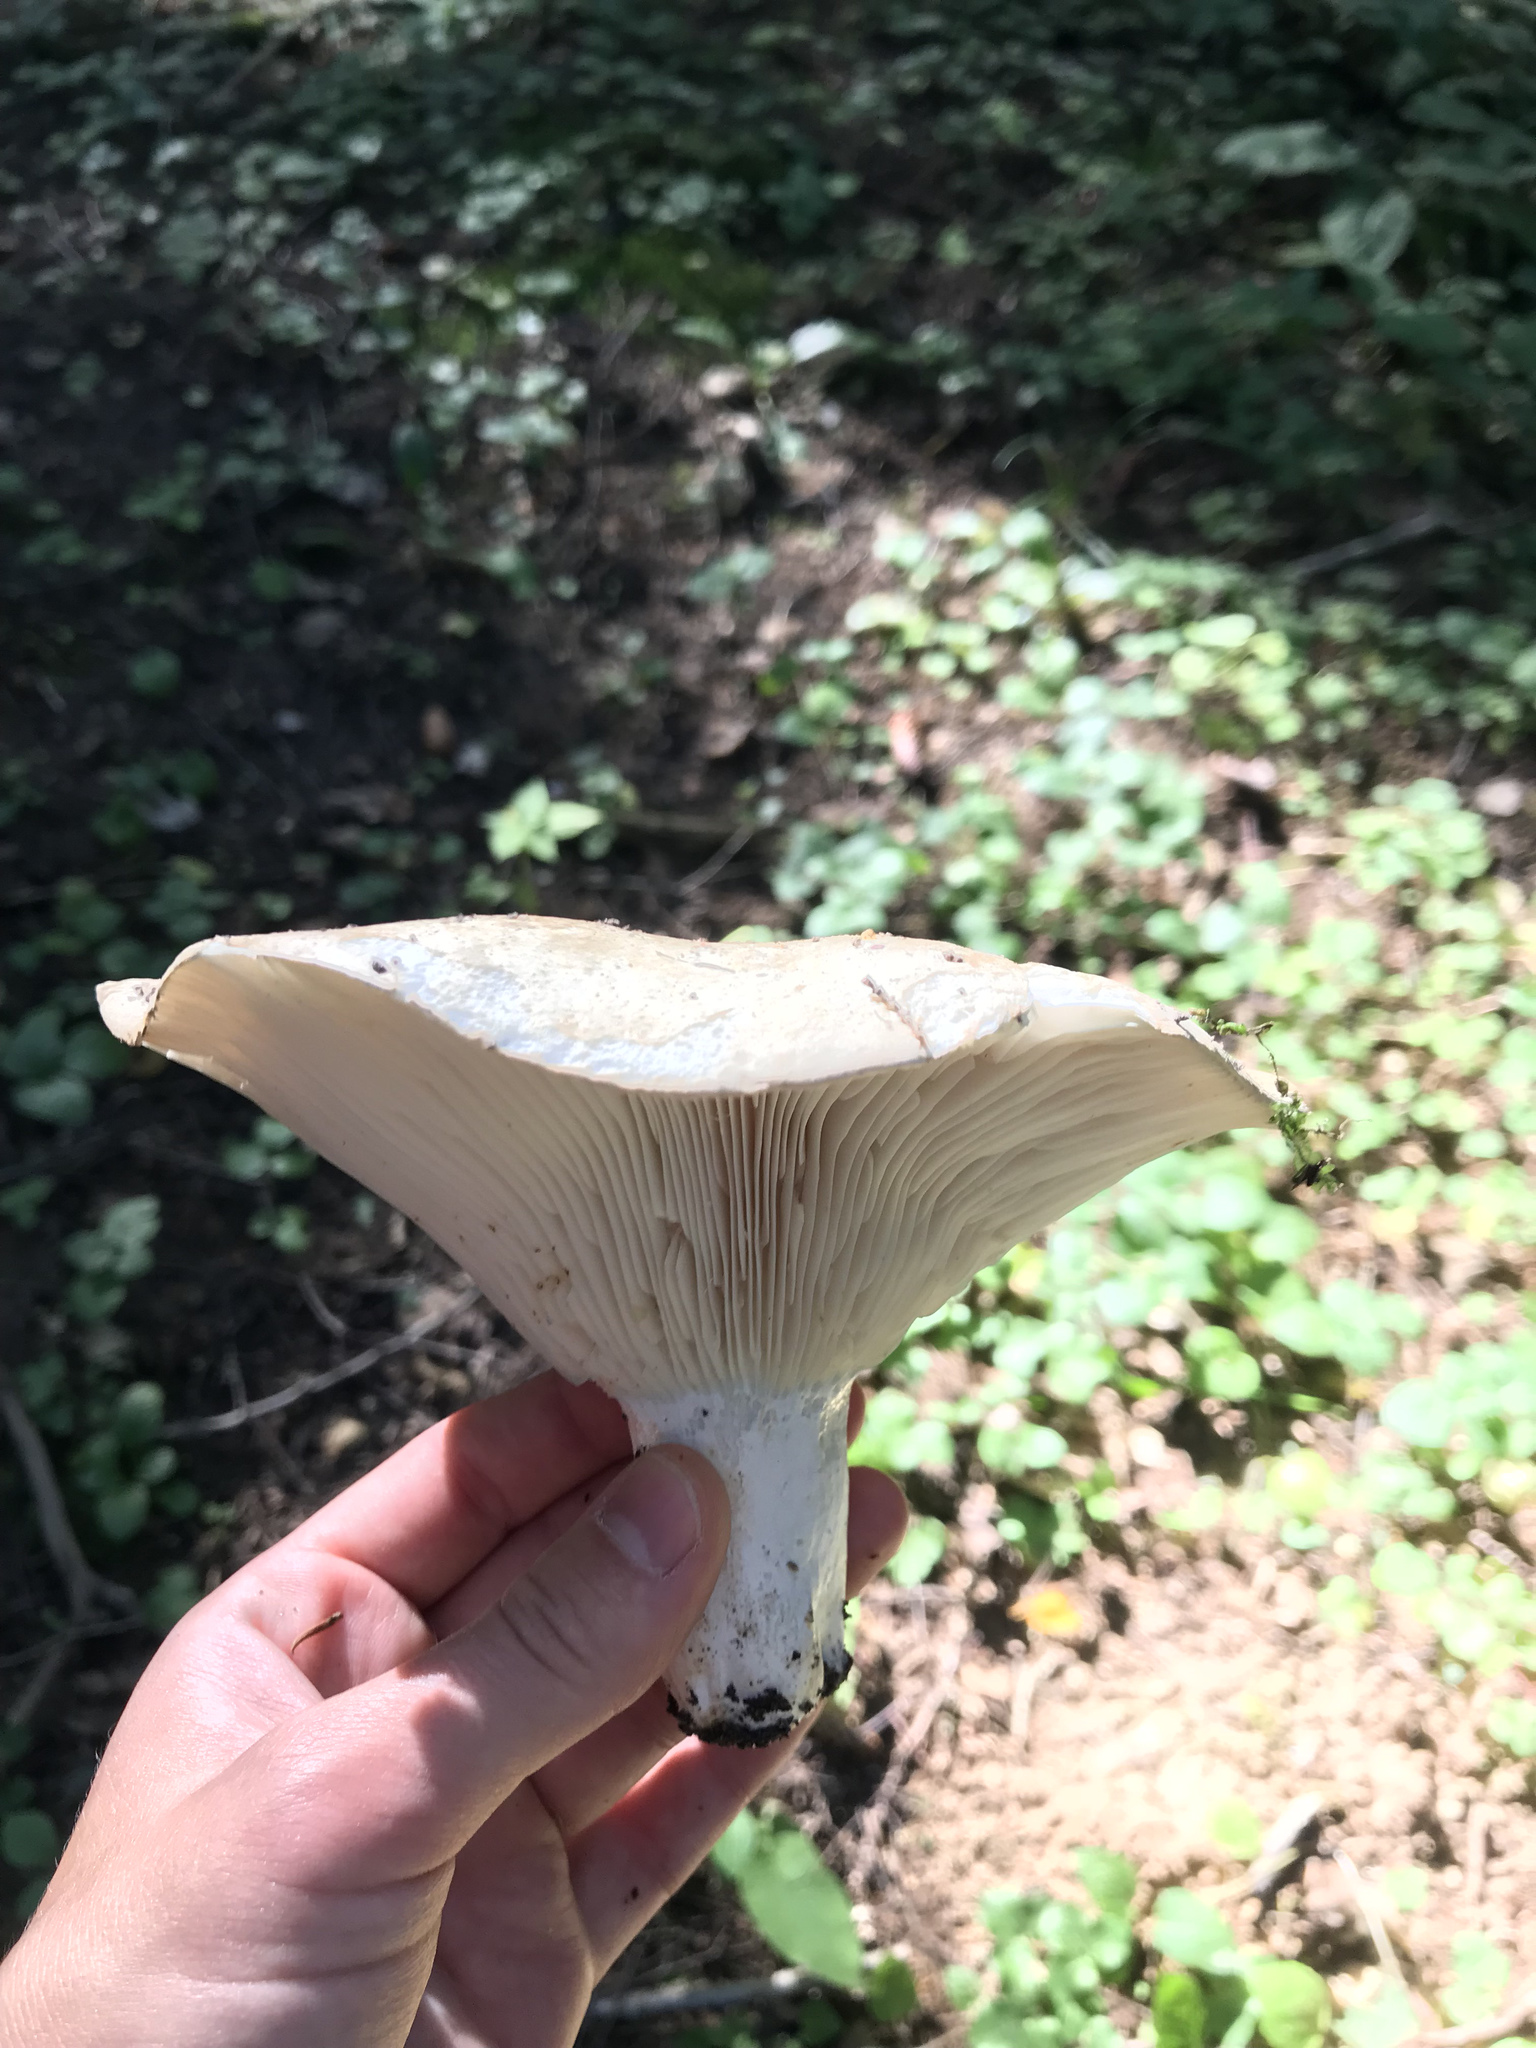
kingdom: Fungi
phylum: Basidiomycota
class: Agaricomycetes
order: Russulales
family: Russulaceae
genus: Russula
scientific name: Russula delica
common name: Milk white brittlegill
